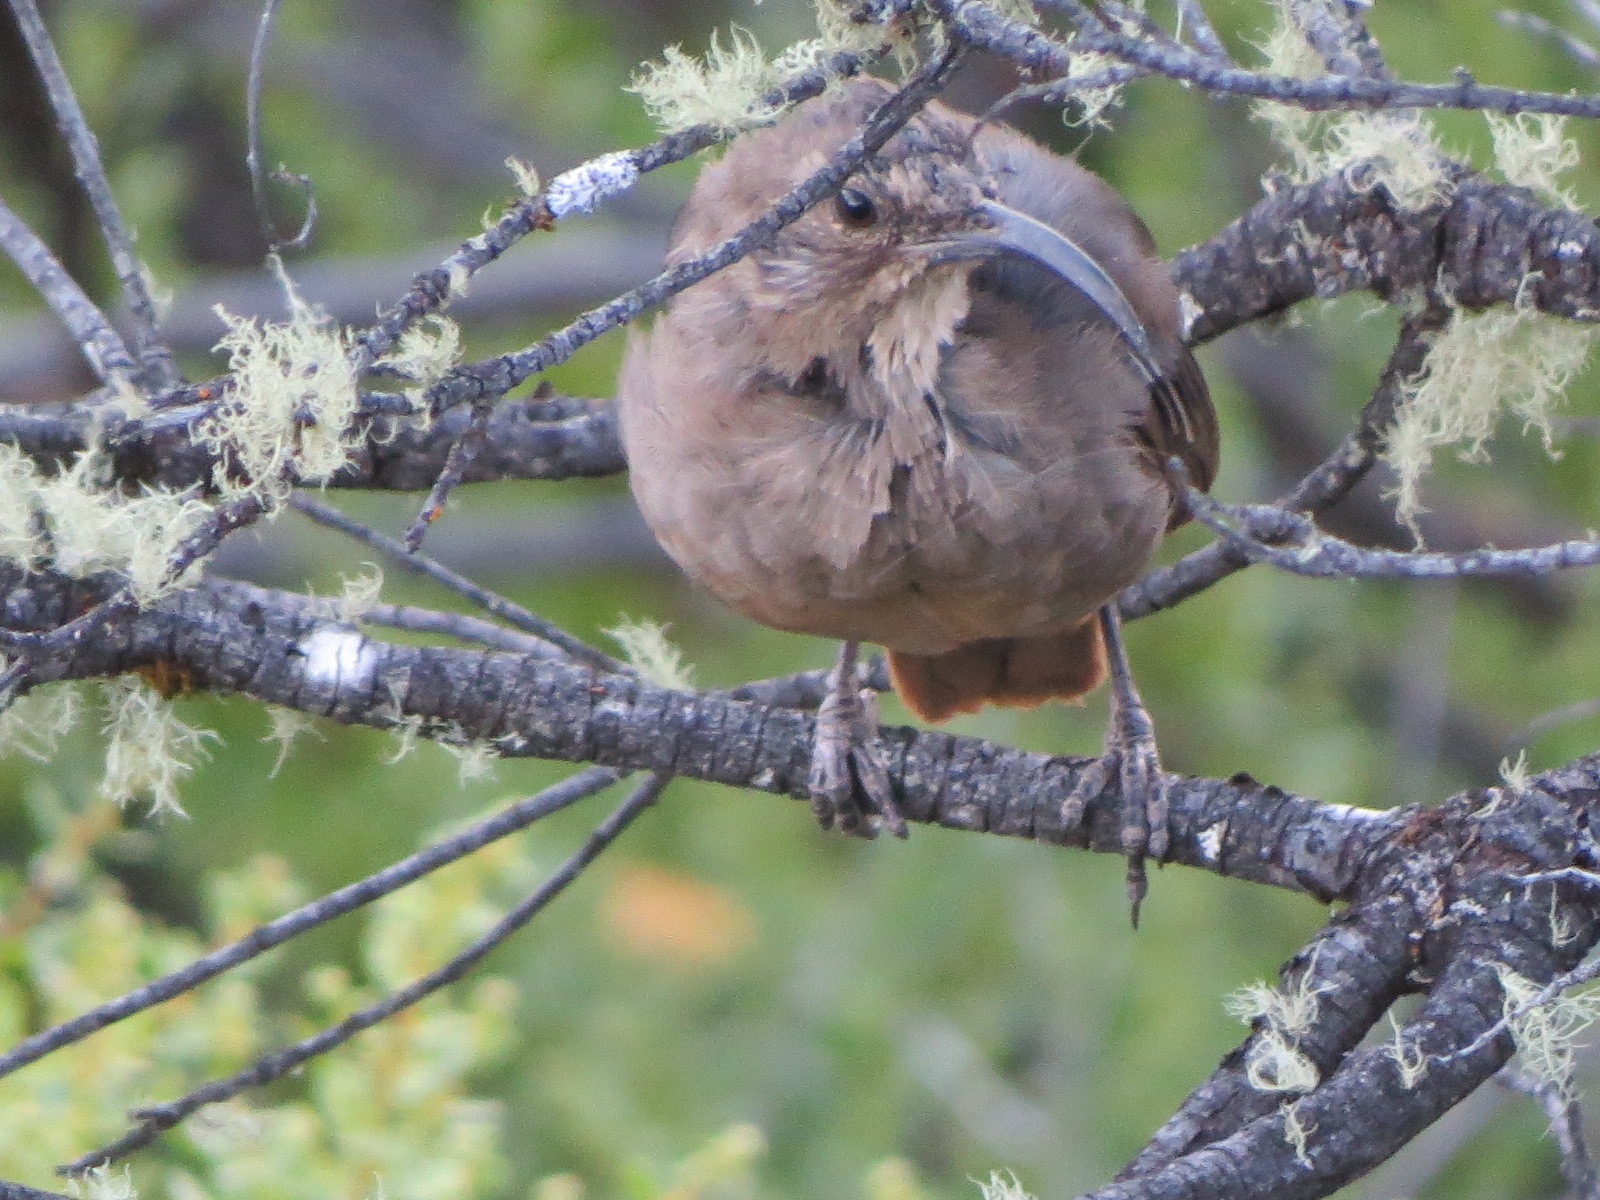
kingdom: Animalia
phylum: Chordata
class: Aves
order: Passeriformes
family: Mimidae
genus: Toxostoma
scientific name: Toxostoma redivivum
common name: California thrasher
